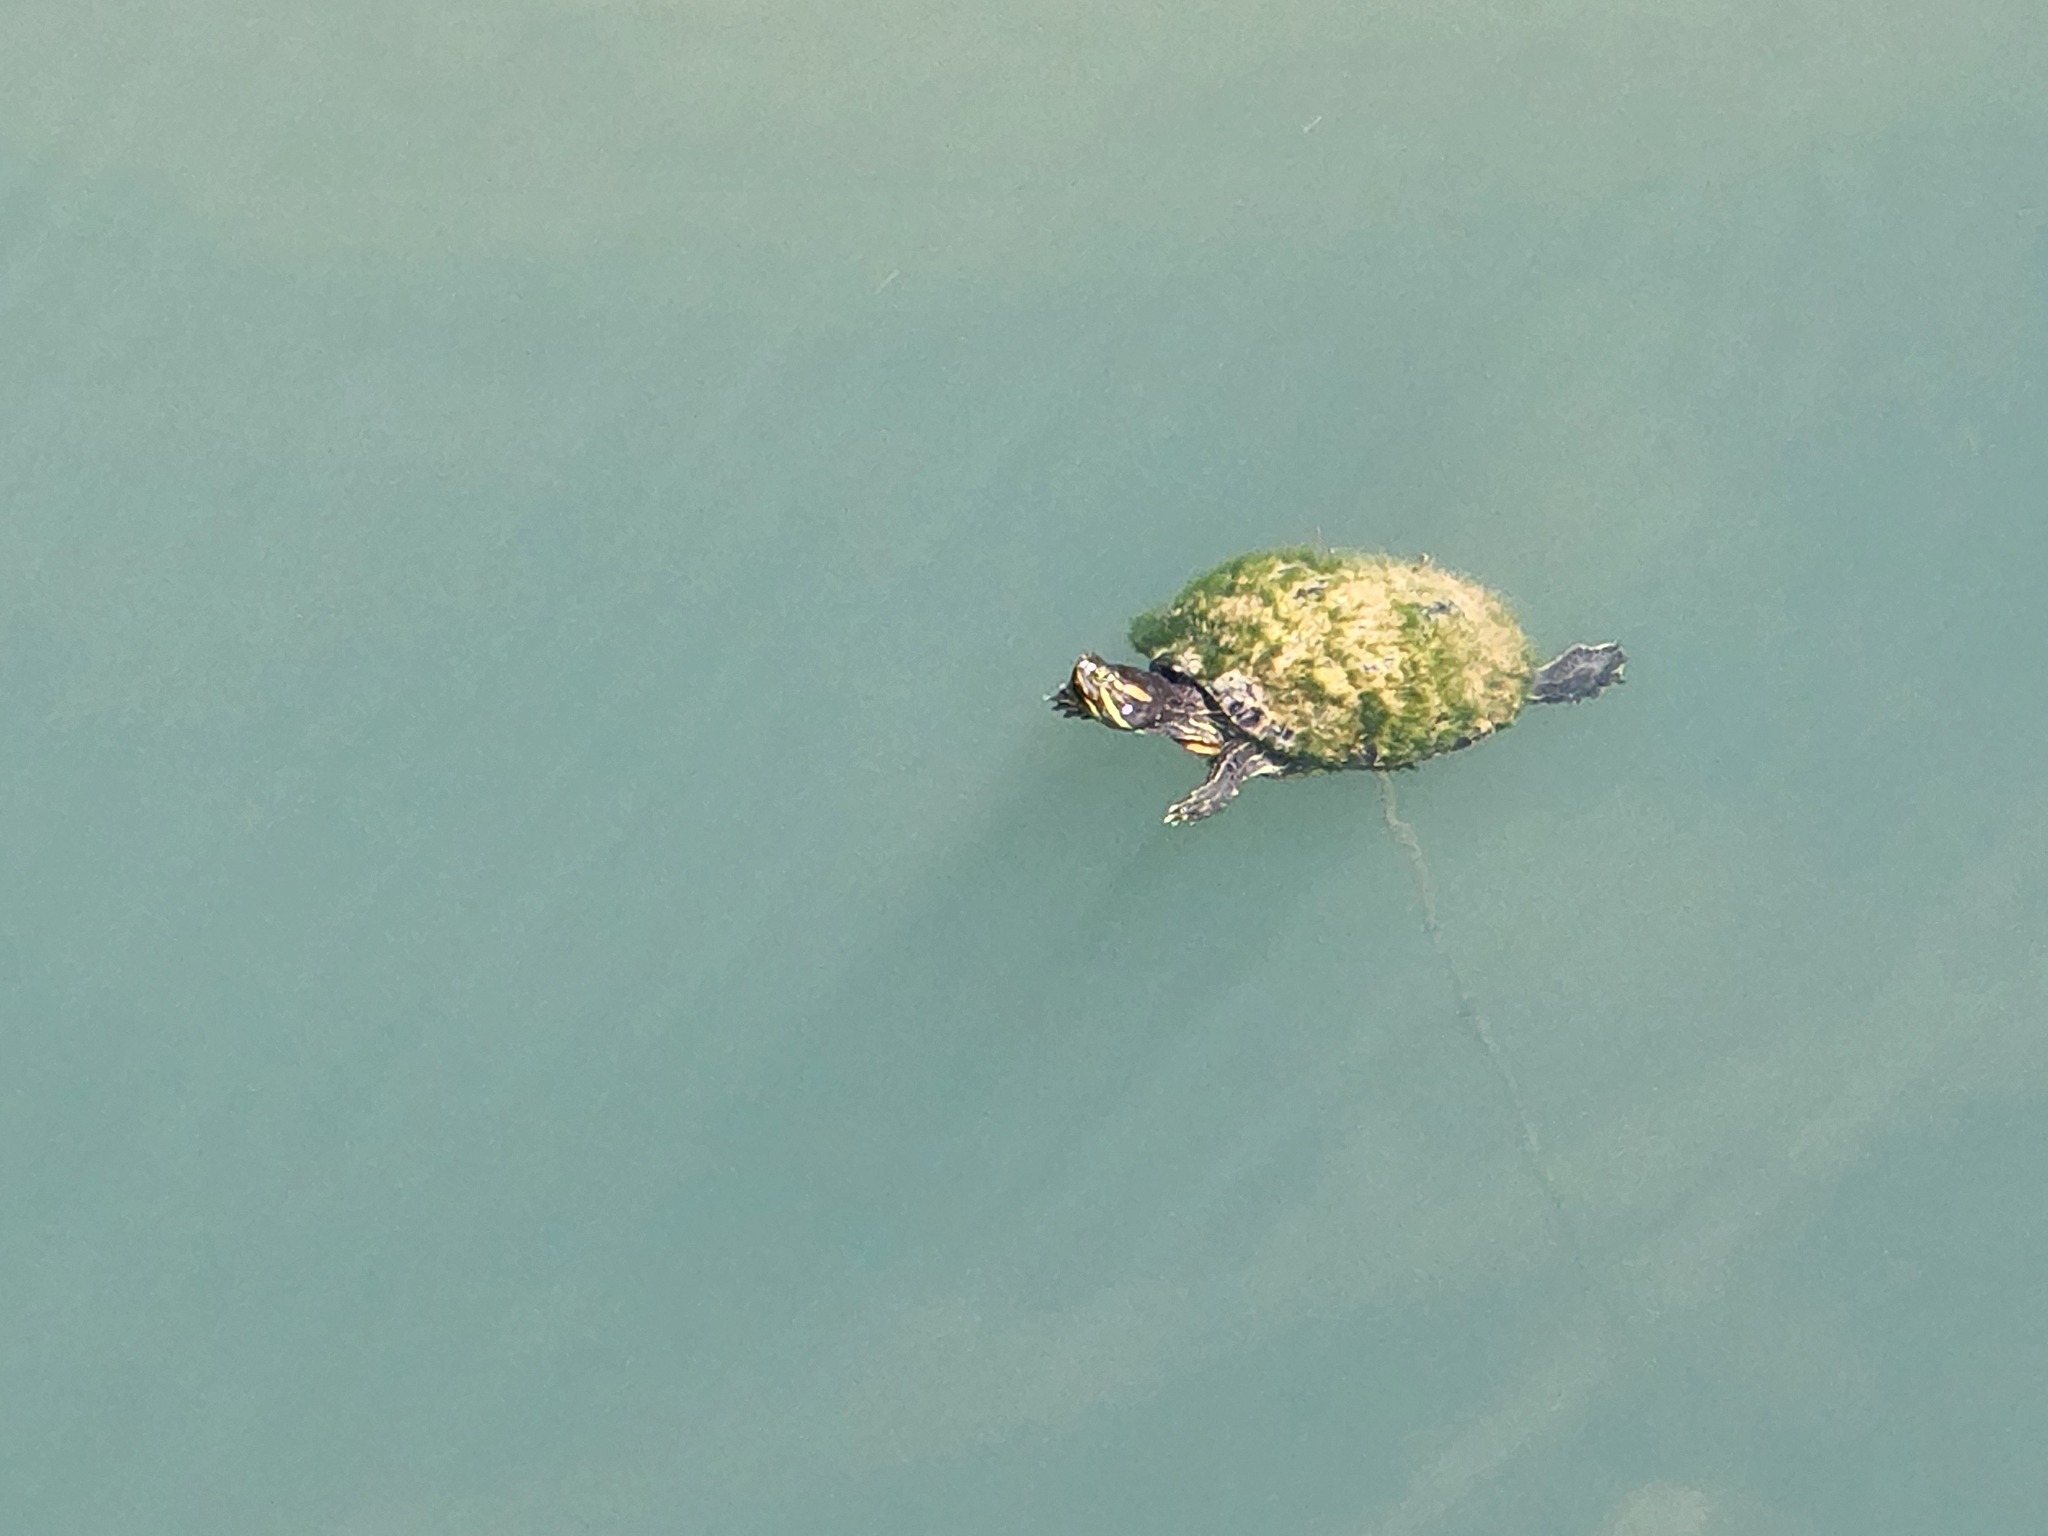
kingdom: Animalia
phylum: Chordata
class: Testudines
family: Emydidae
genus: Trachemys
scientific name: Trachemys scripta
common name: Slider
